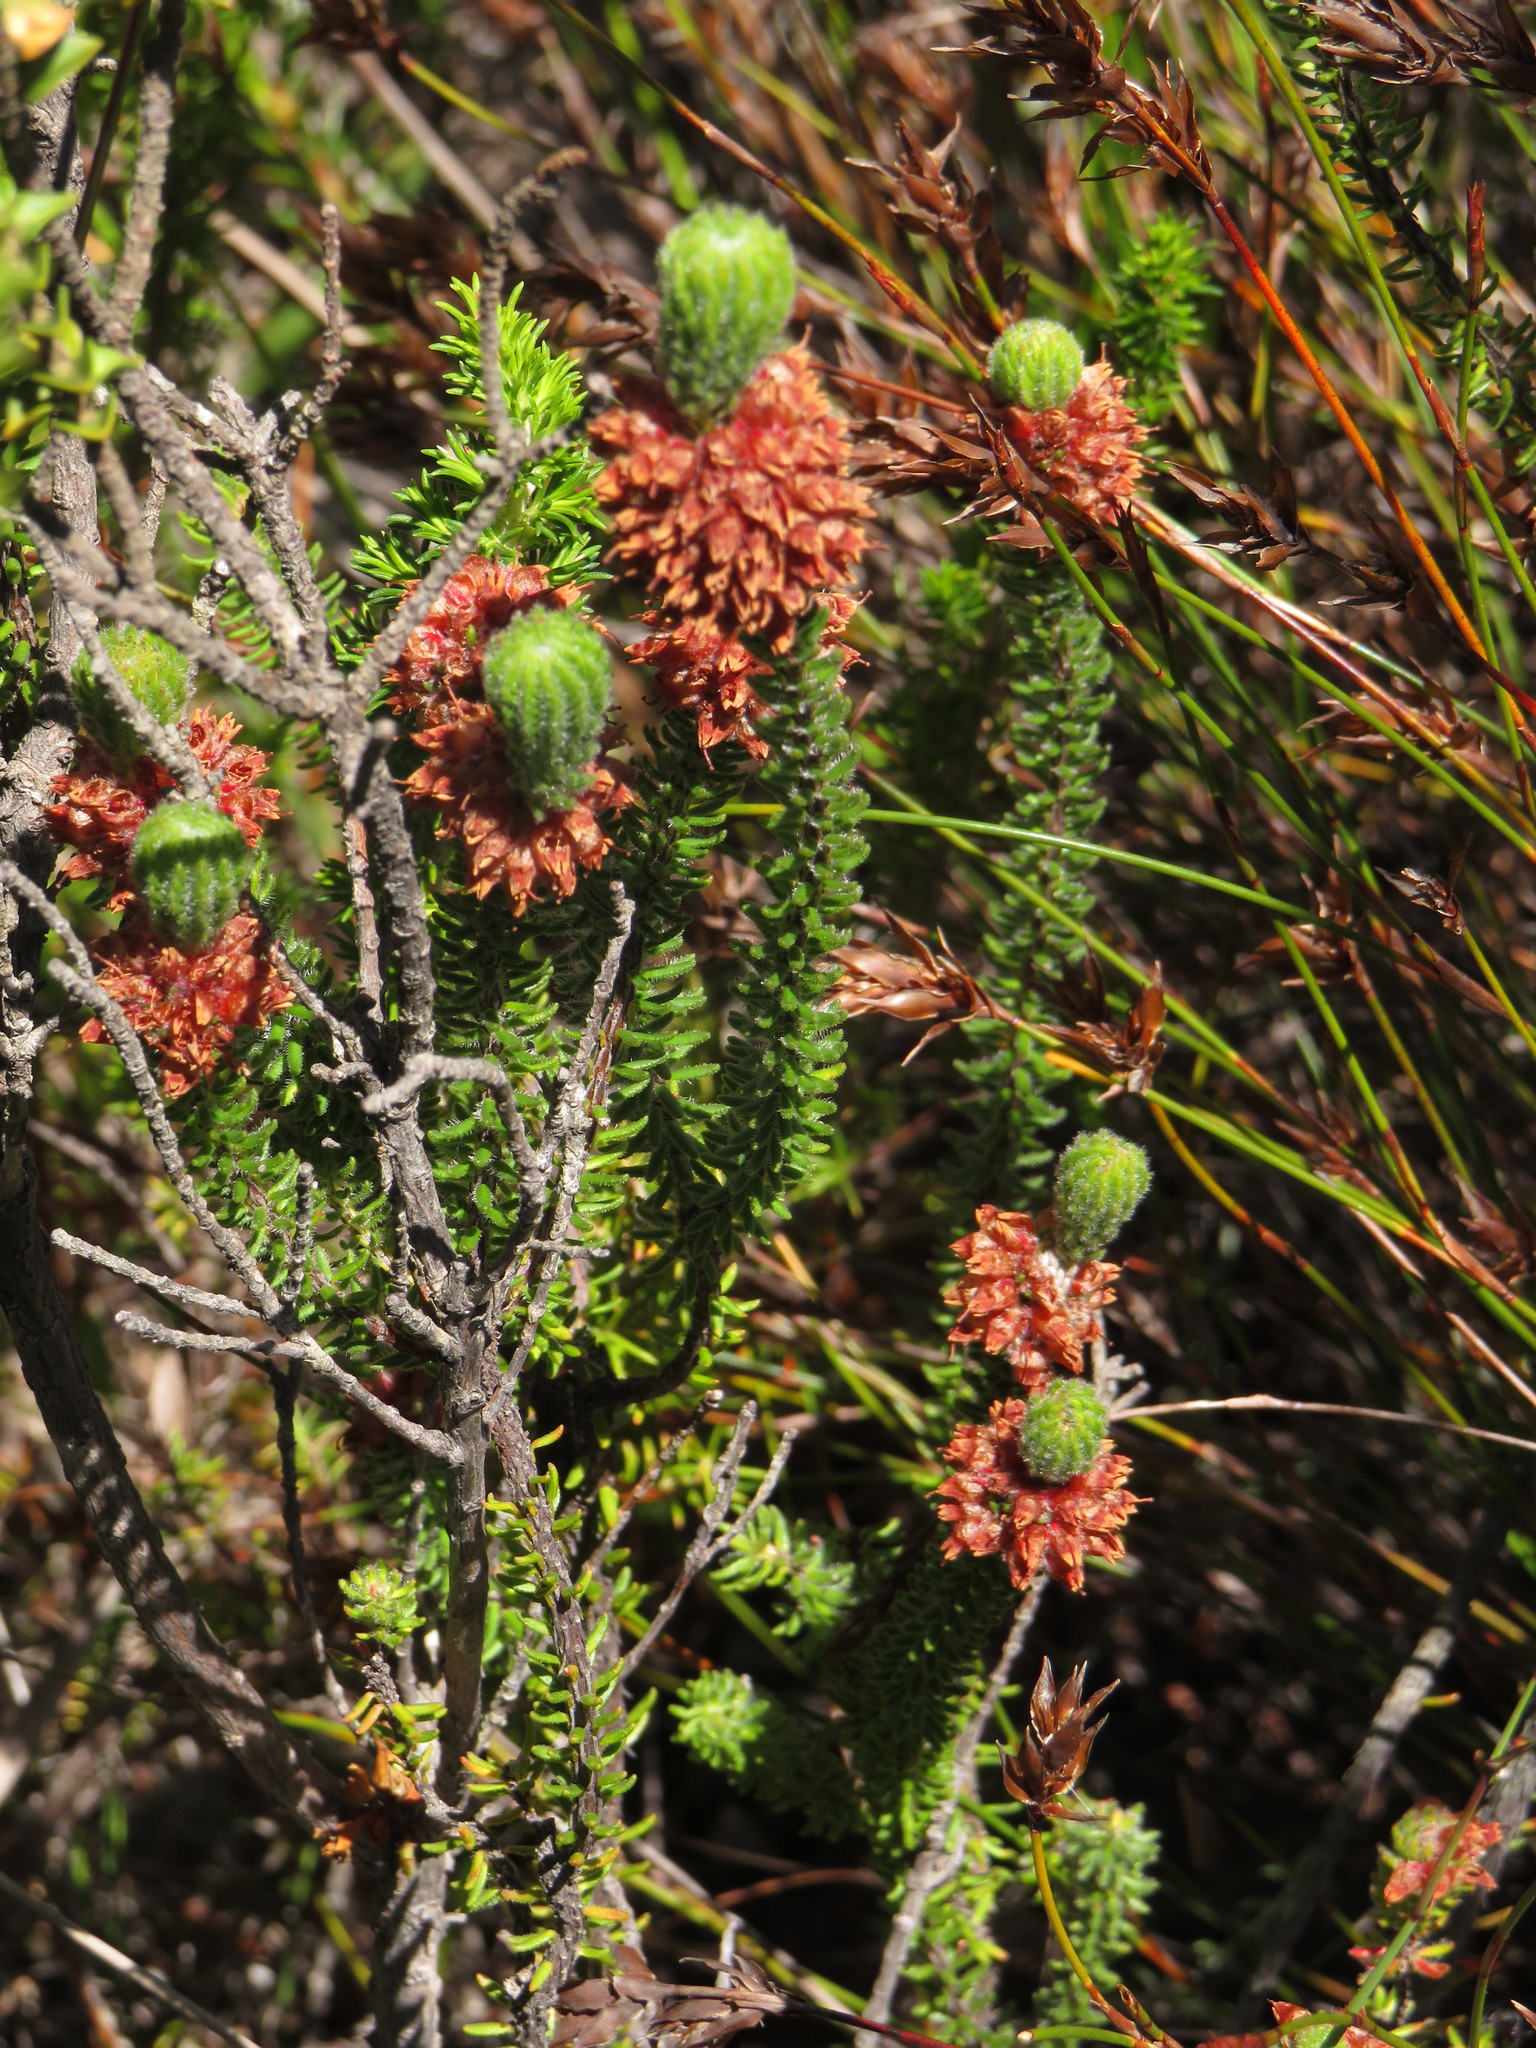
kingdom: Plantae
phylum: Tracheophyta
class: Magnoliopsida
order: Ericales
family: Ericaceae
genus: Erica
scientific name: Erica empetrina
